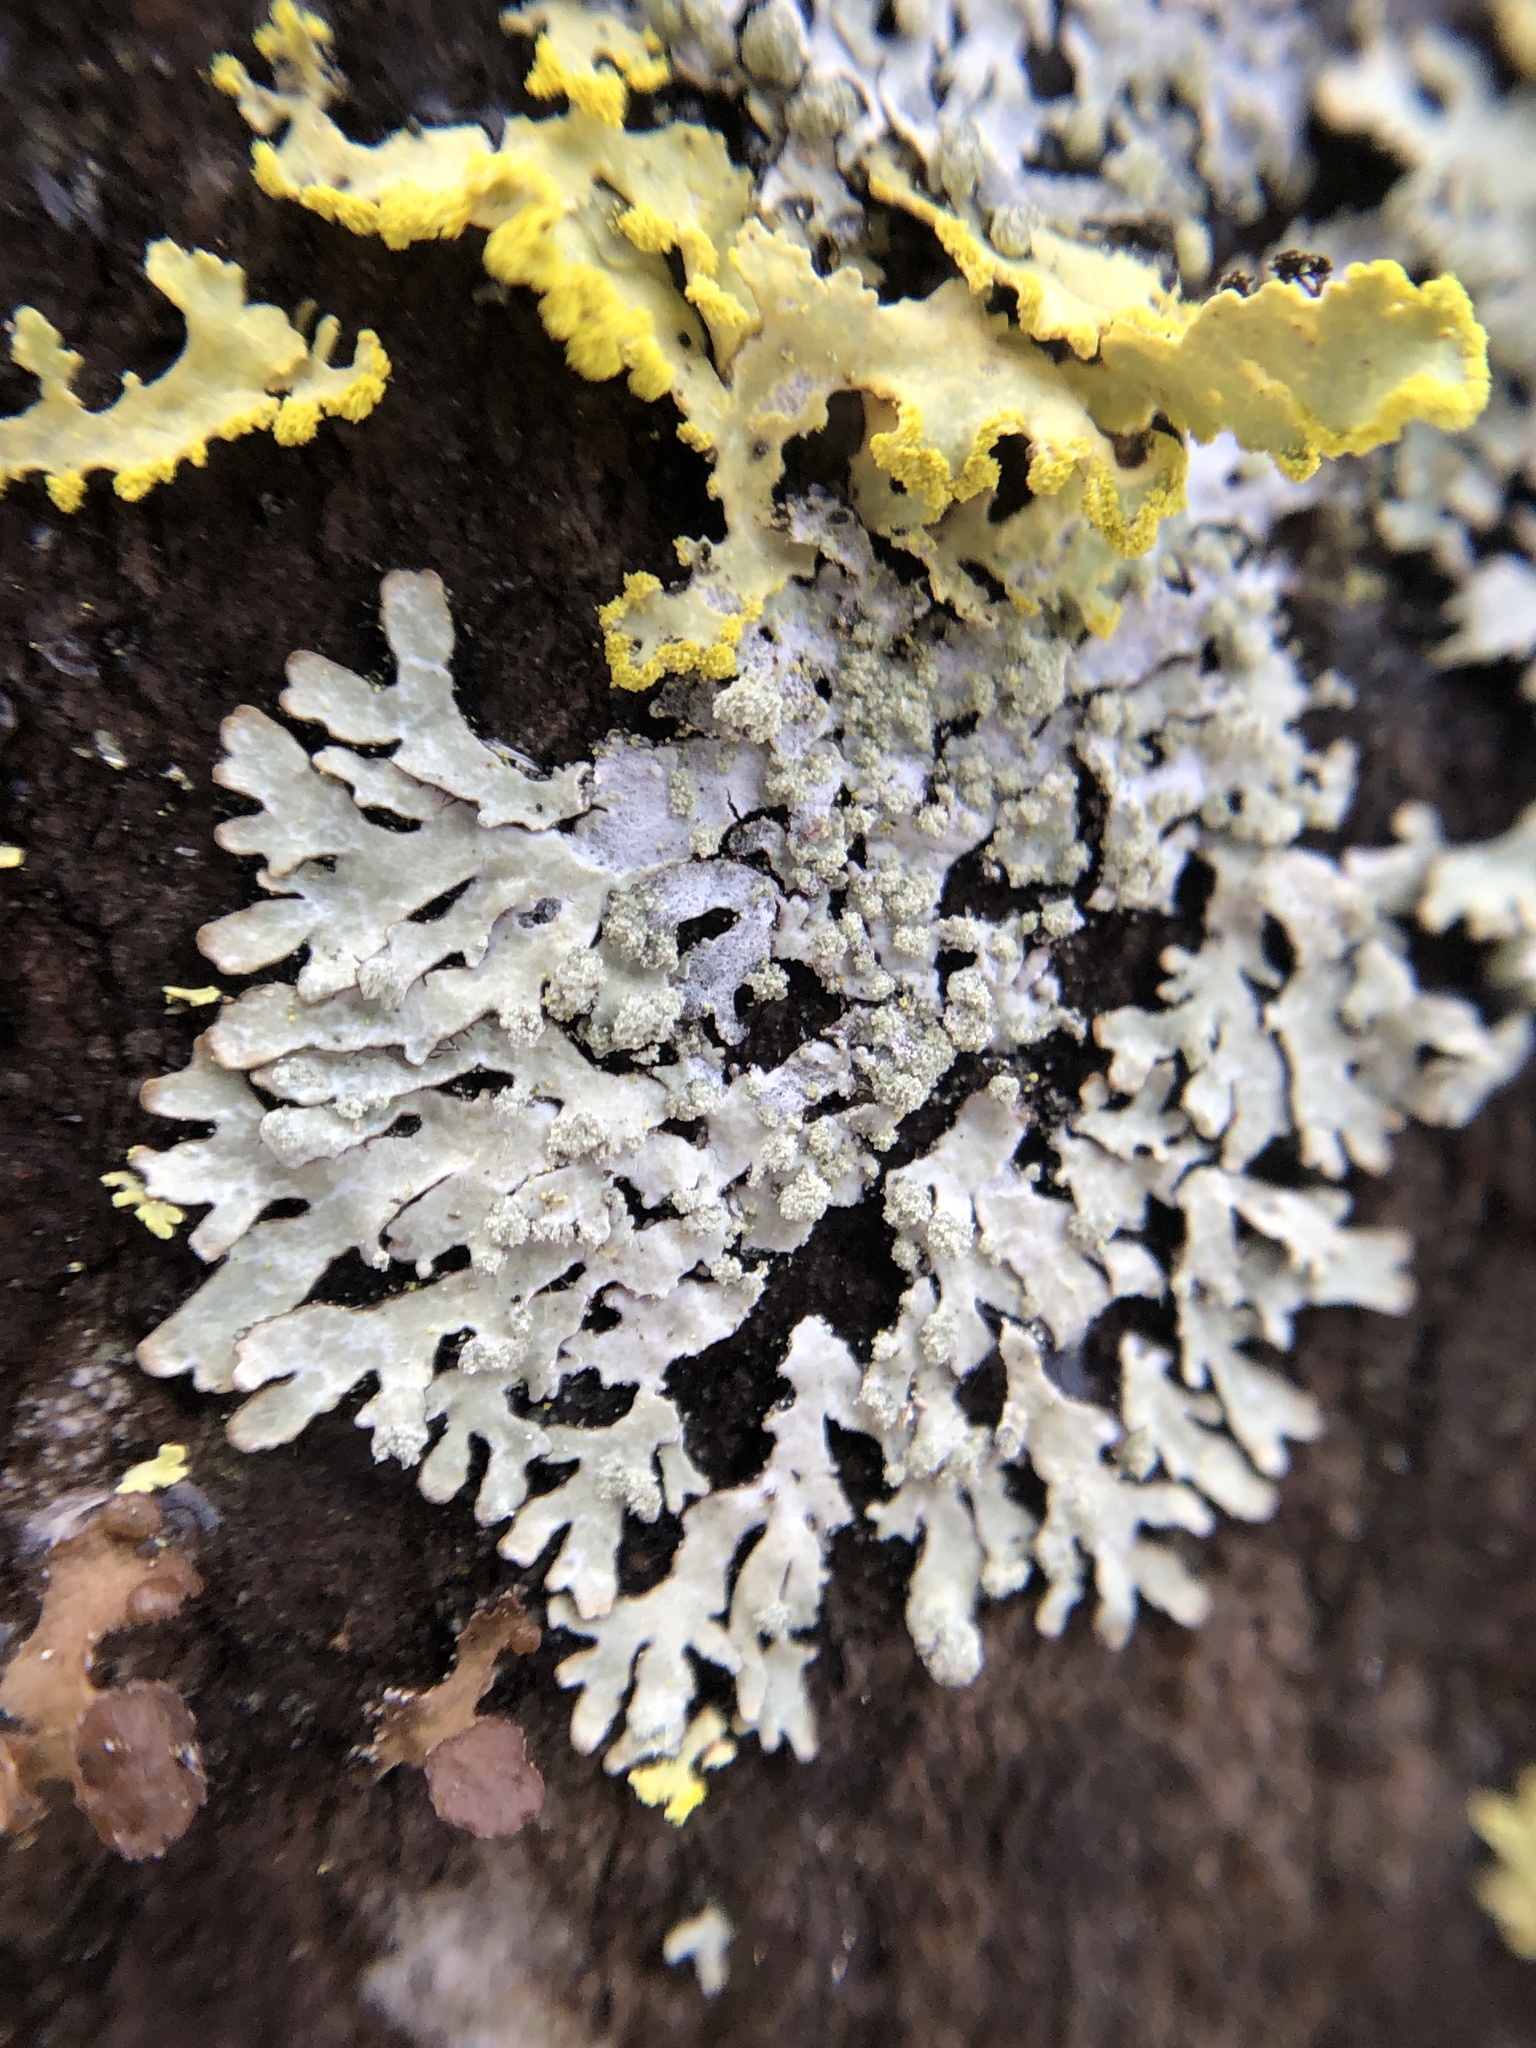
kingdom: Fungi
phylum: Ascomycota
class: Lecanoromycetes
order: Lecanorales
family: Parmeliaceae
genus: Parmeliopsis
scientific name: Parmeliopsis hyperopta
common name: Grey starburst lichen
